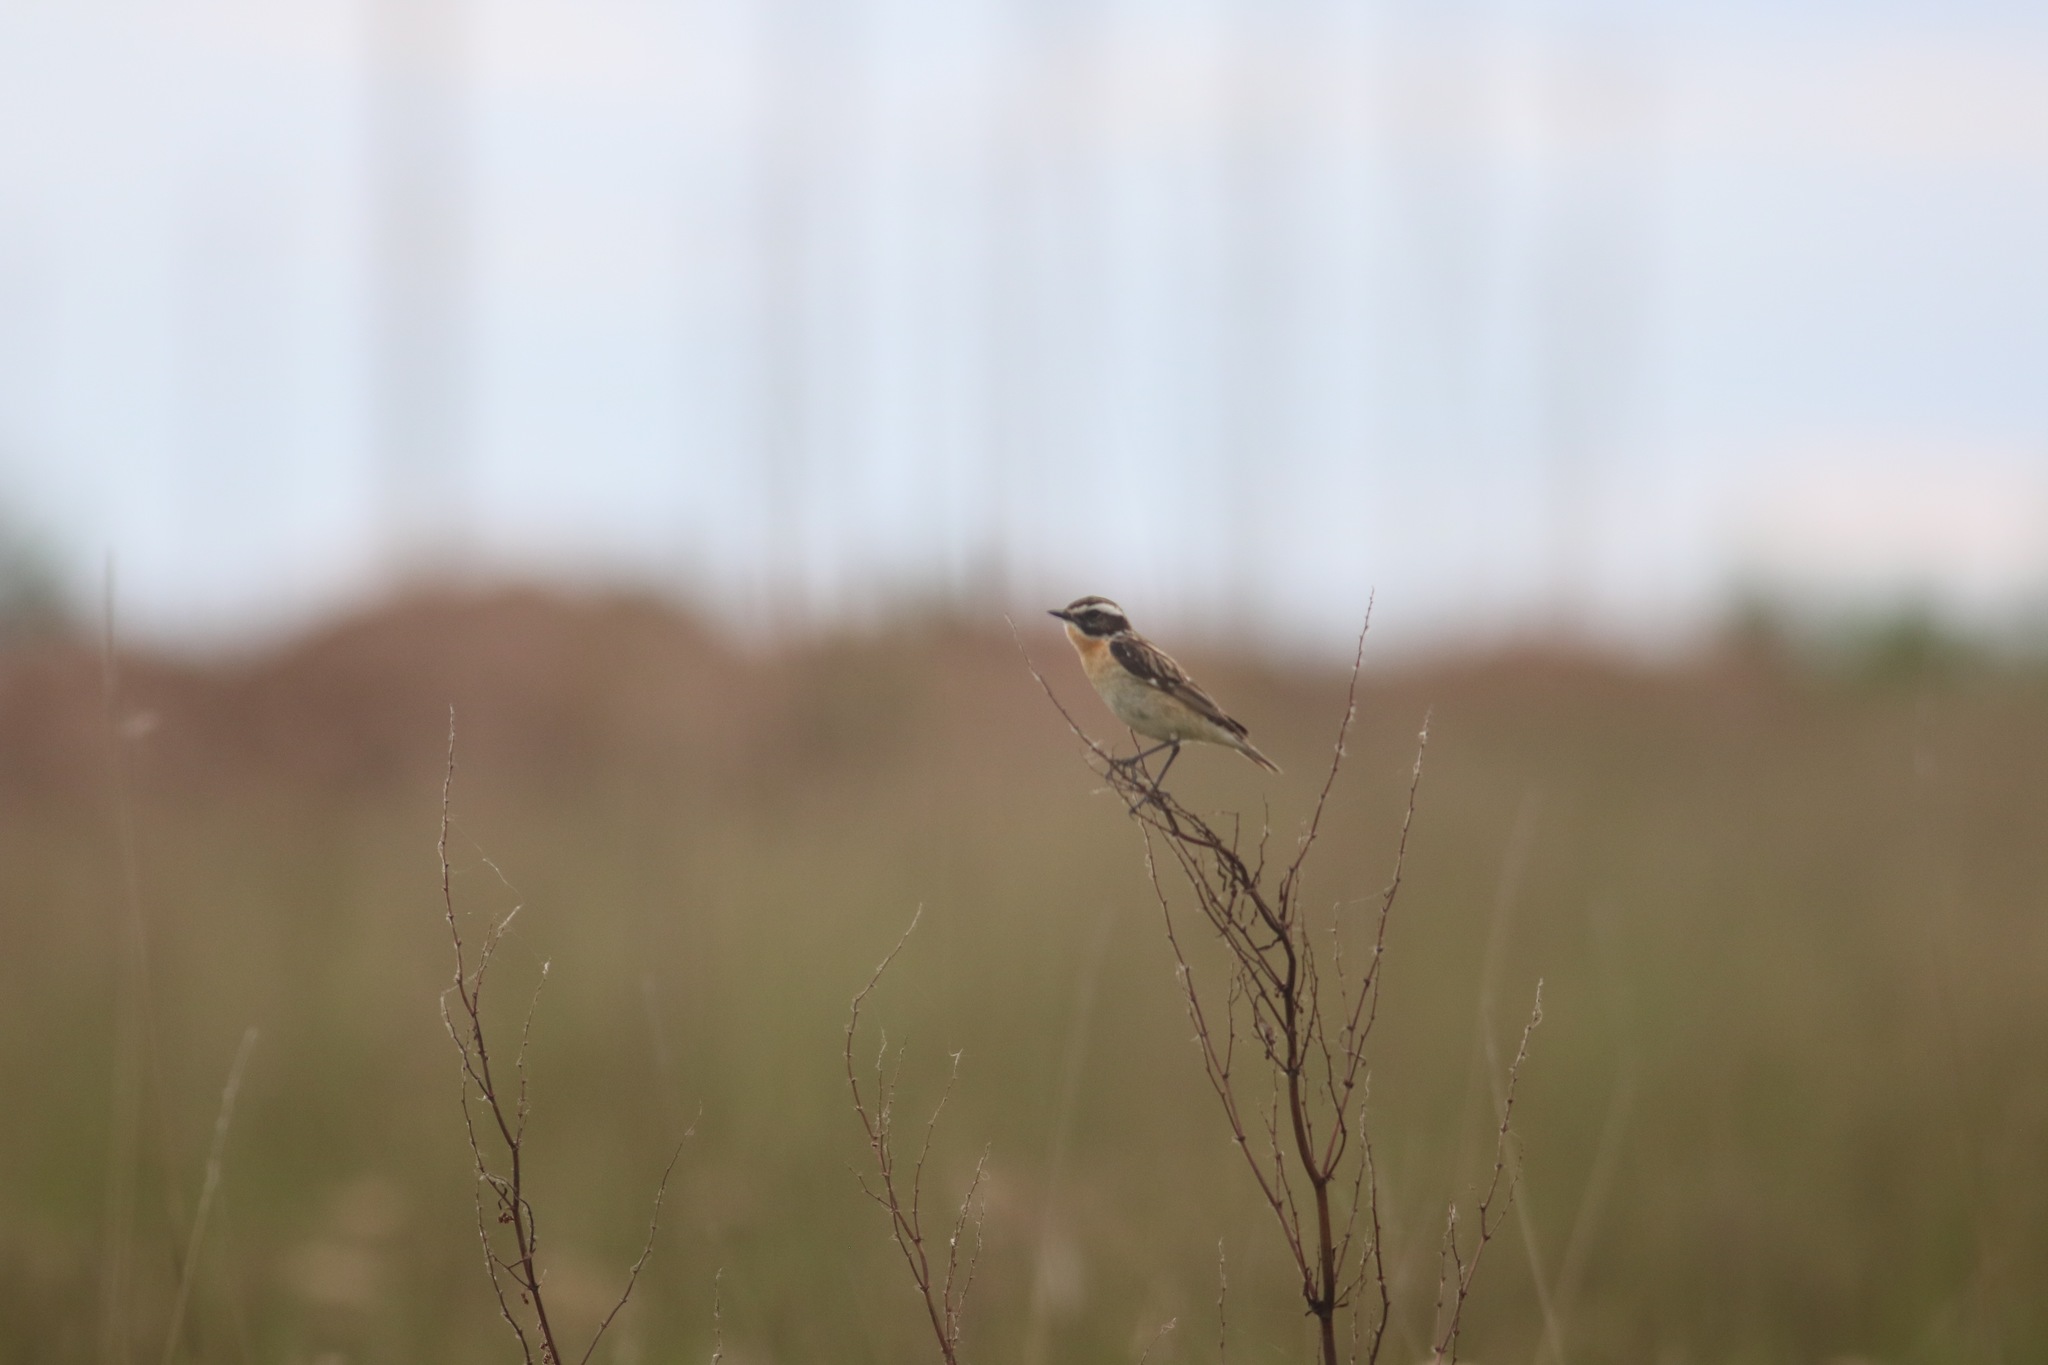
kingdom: Animalia
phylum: Chordata
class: Aves
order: Passeriformes
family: Muscicapidae
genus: Saxicola
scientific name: Saxicola rubetra
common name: Whinchat
